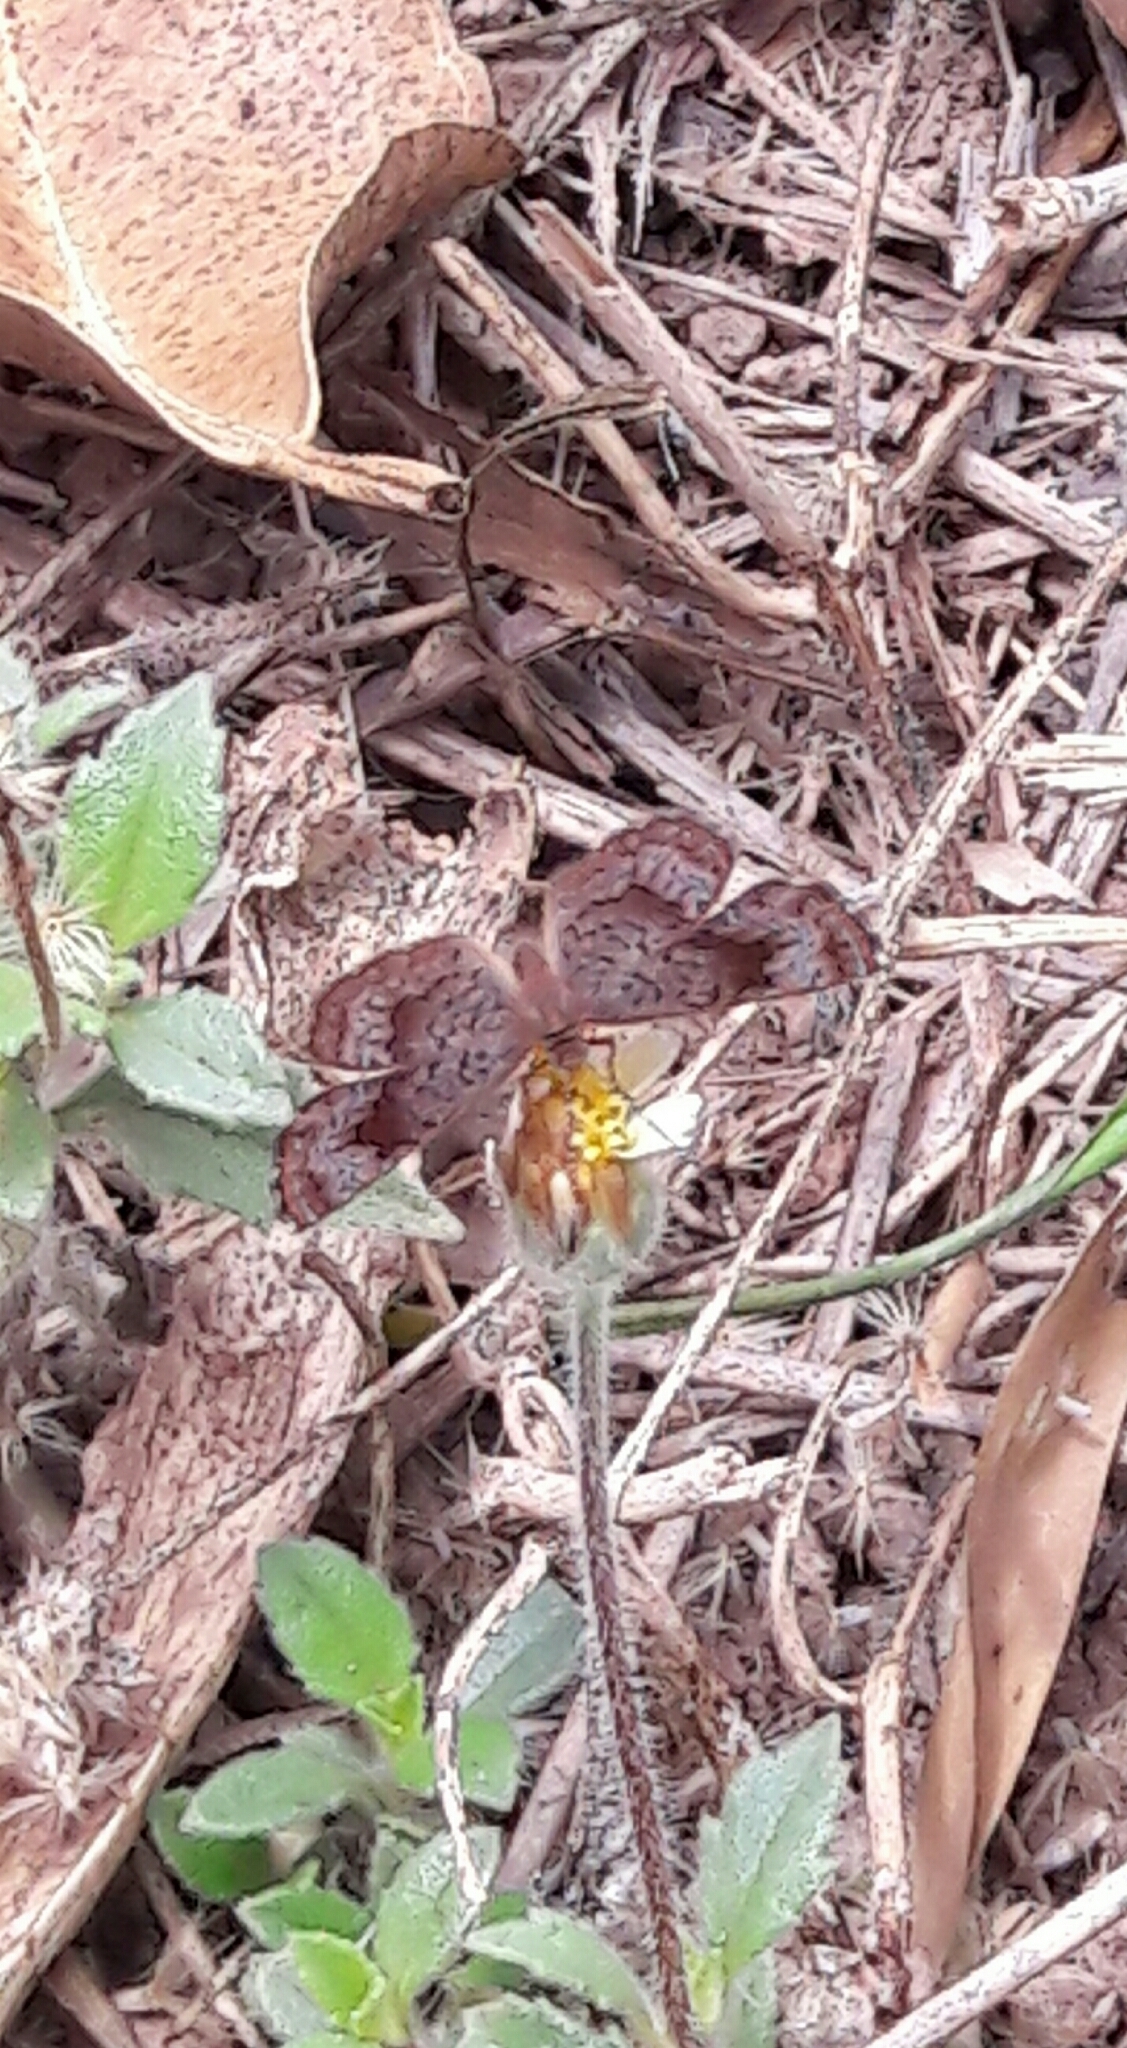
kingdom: Animalia
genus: Calephelis
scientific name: Calephelis aymaran
